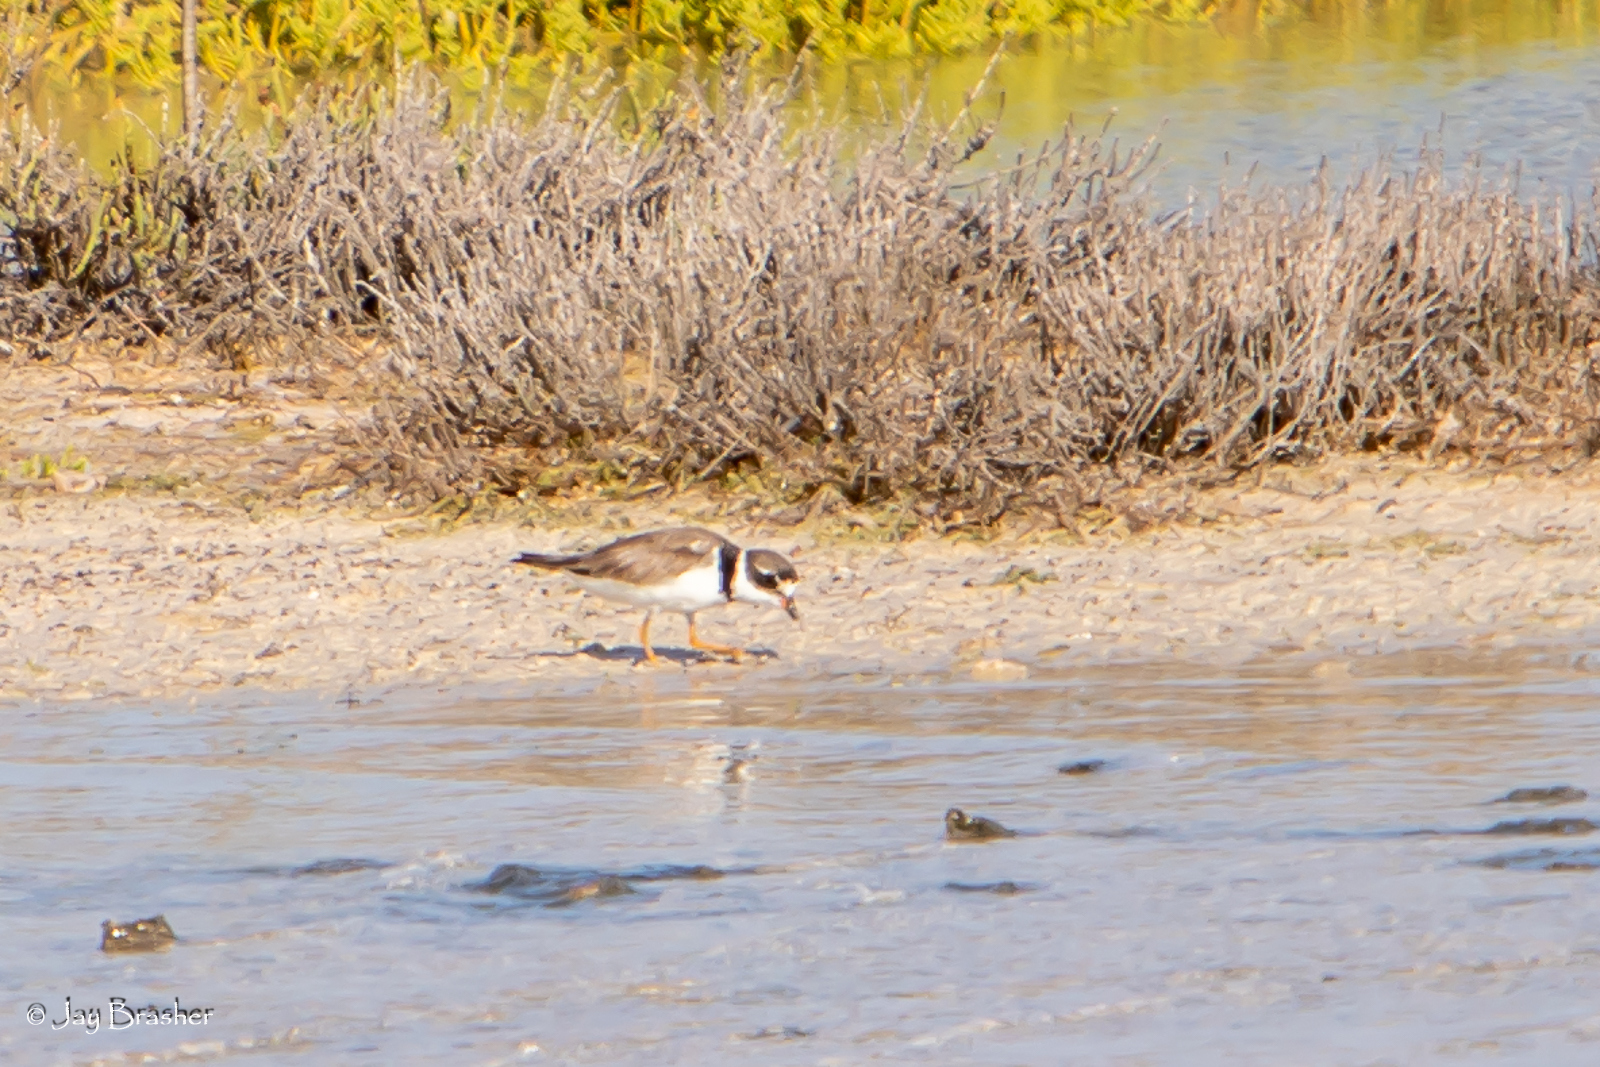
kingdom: Animalia
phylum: Chordata
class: Aves
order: Charadriiformes
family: Charadriidae
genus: Charadrius
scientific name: Charadrius semipalmatus
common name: Semipalmated plover
